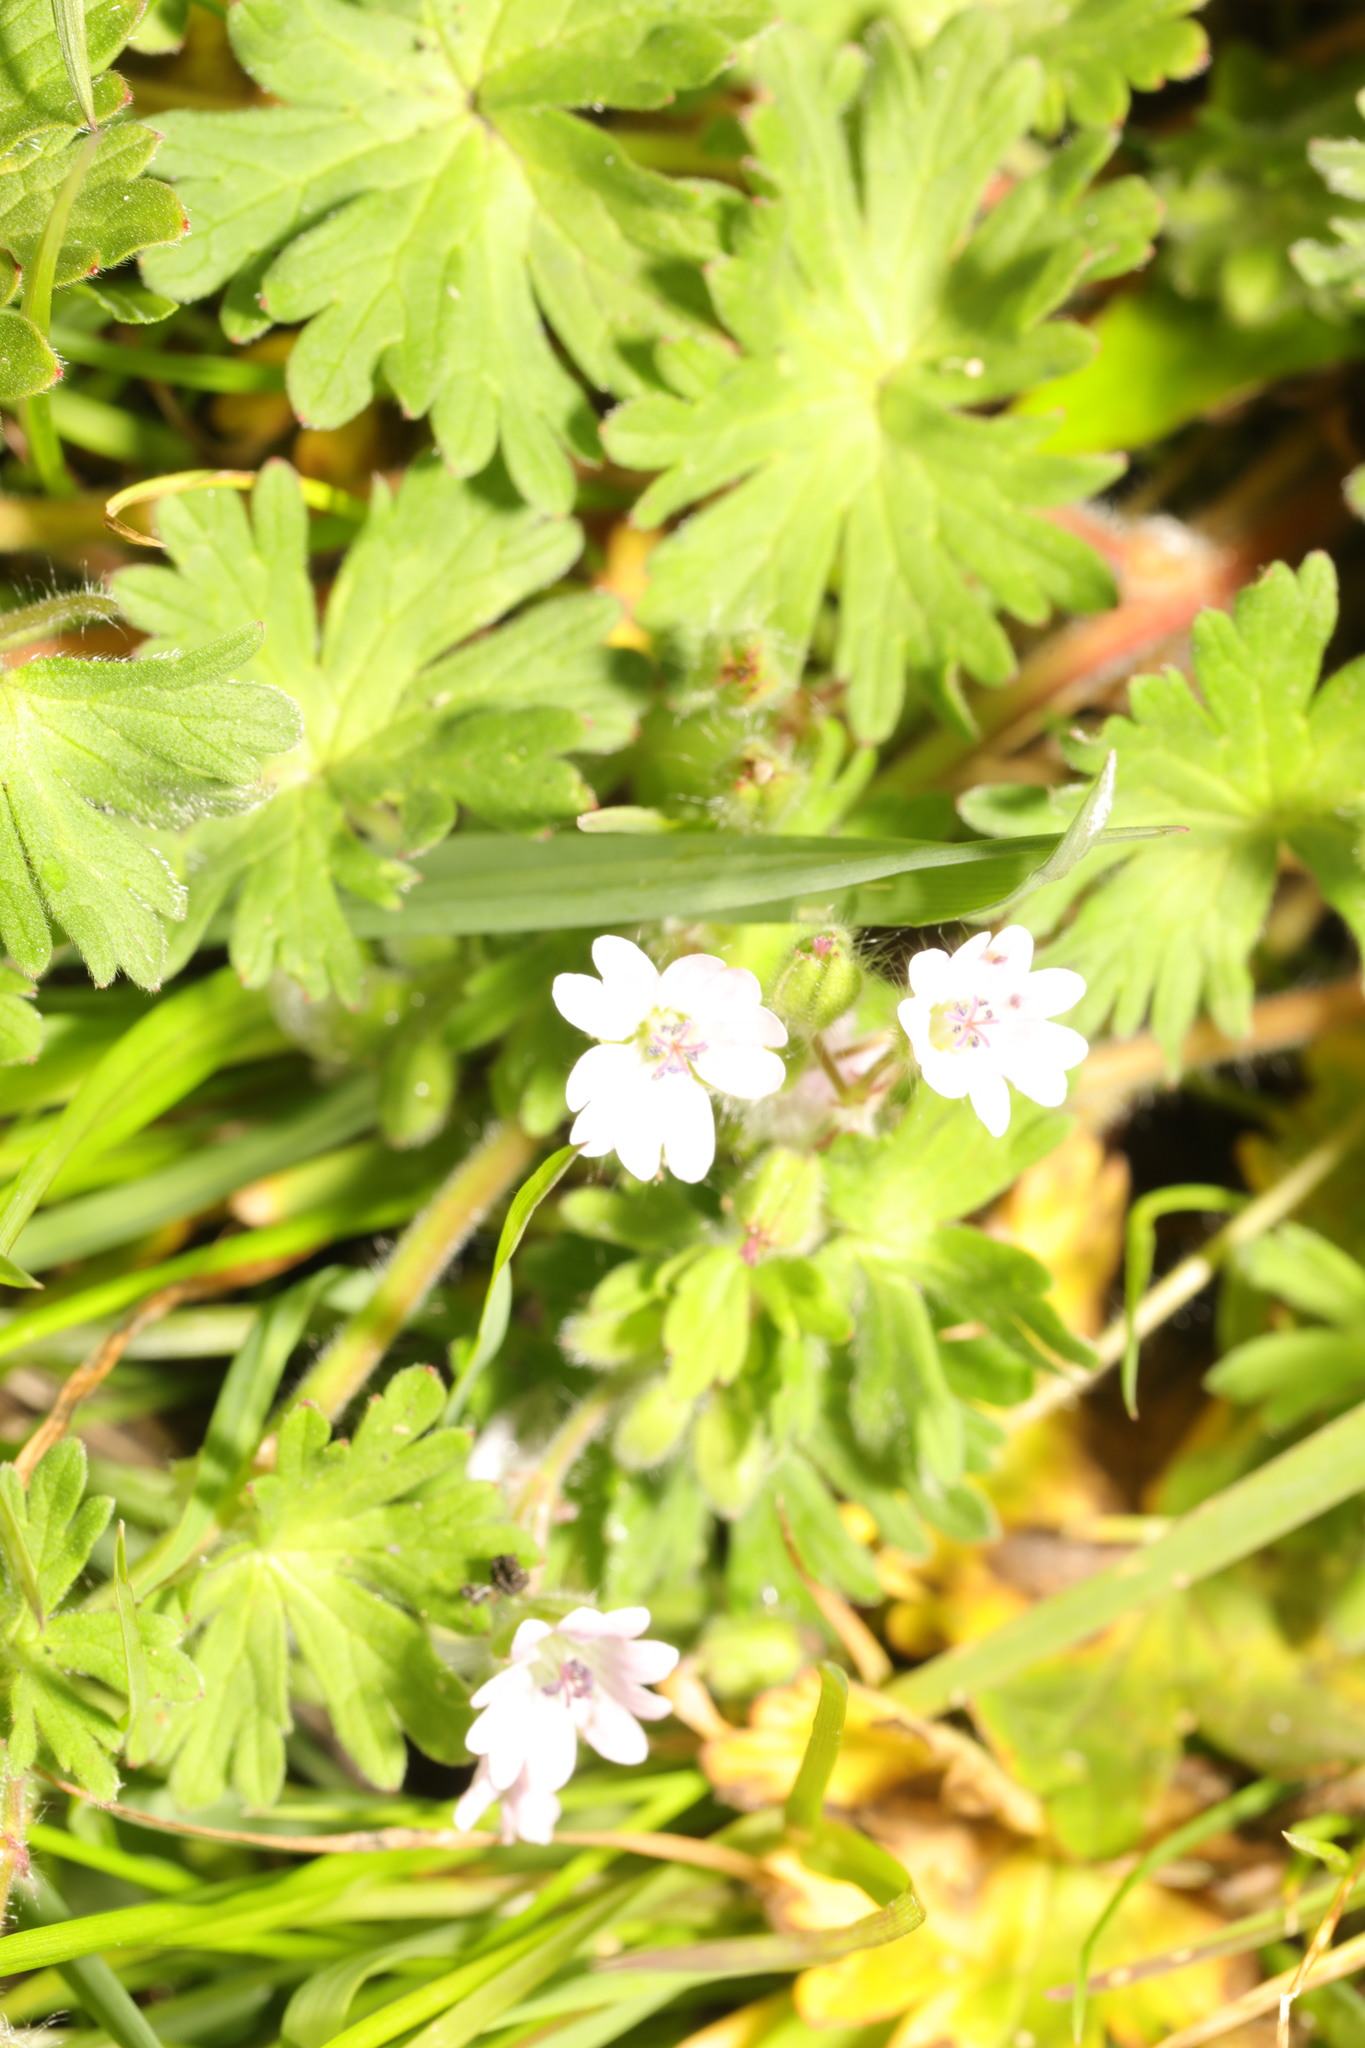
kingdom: Plantae
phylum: Tracheophyta
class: Magnoliopsida
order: Geraniales
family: Geraniaceae
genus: Geranium
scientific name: Geranium pusillum
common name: Small geranium
